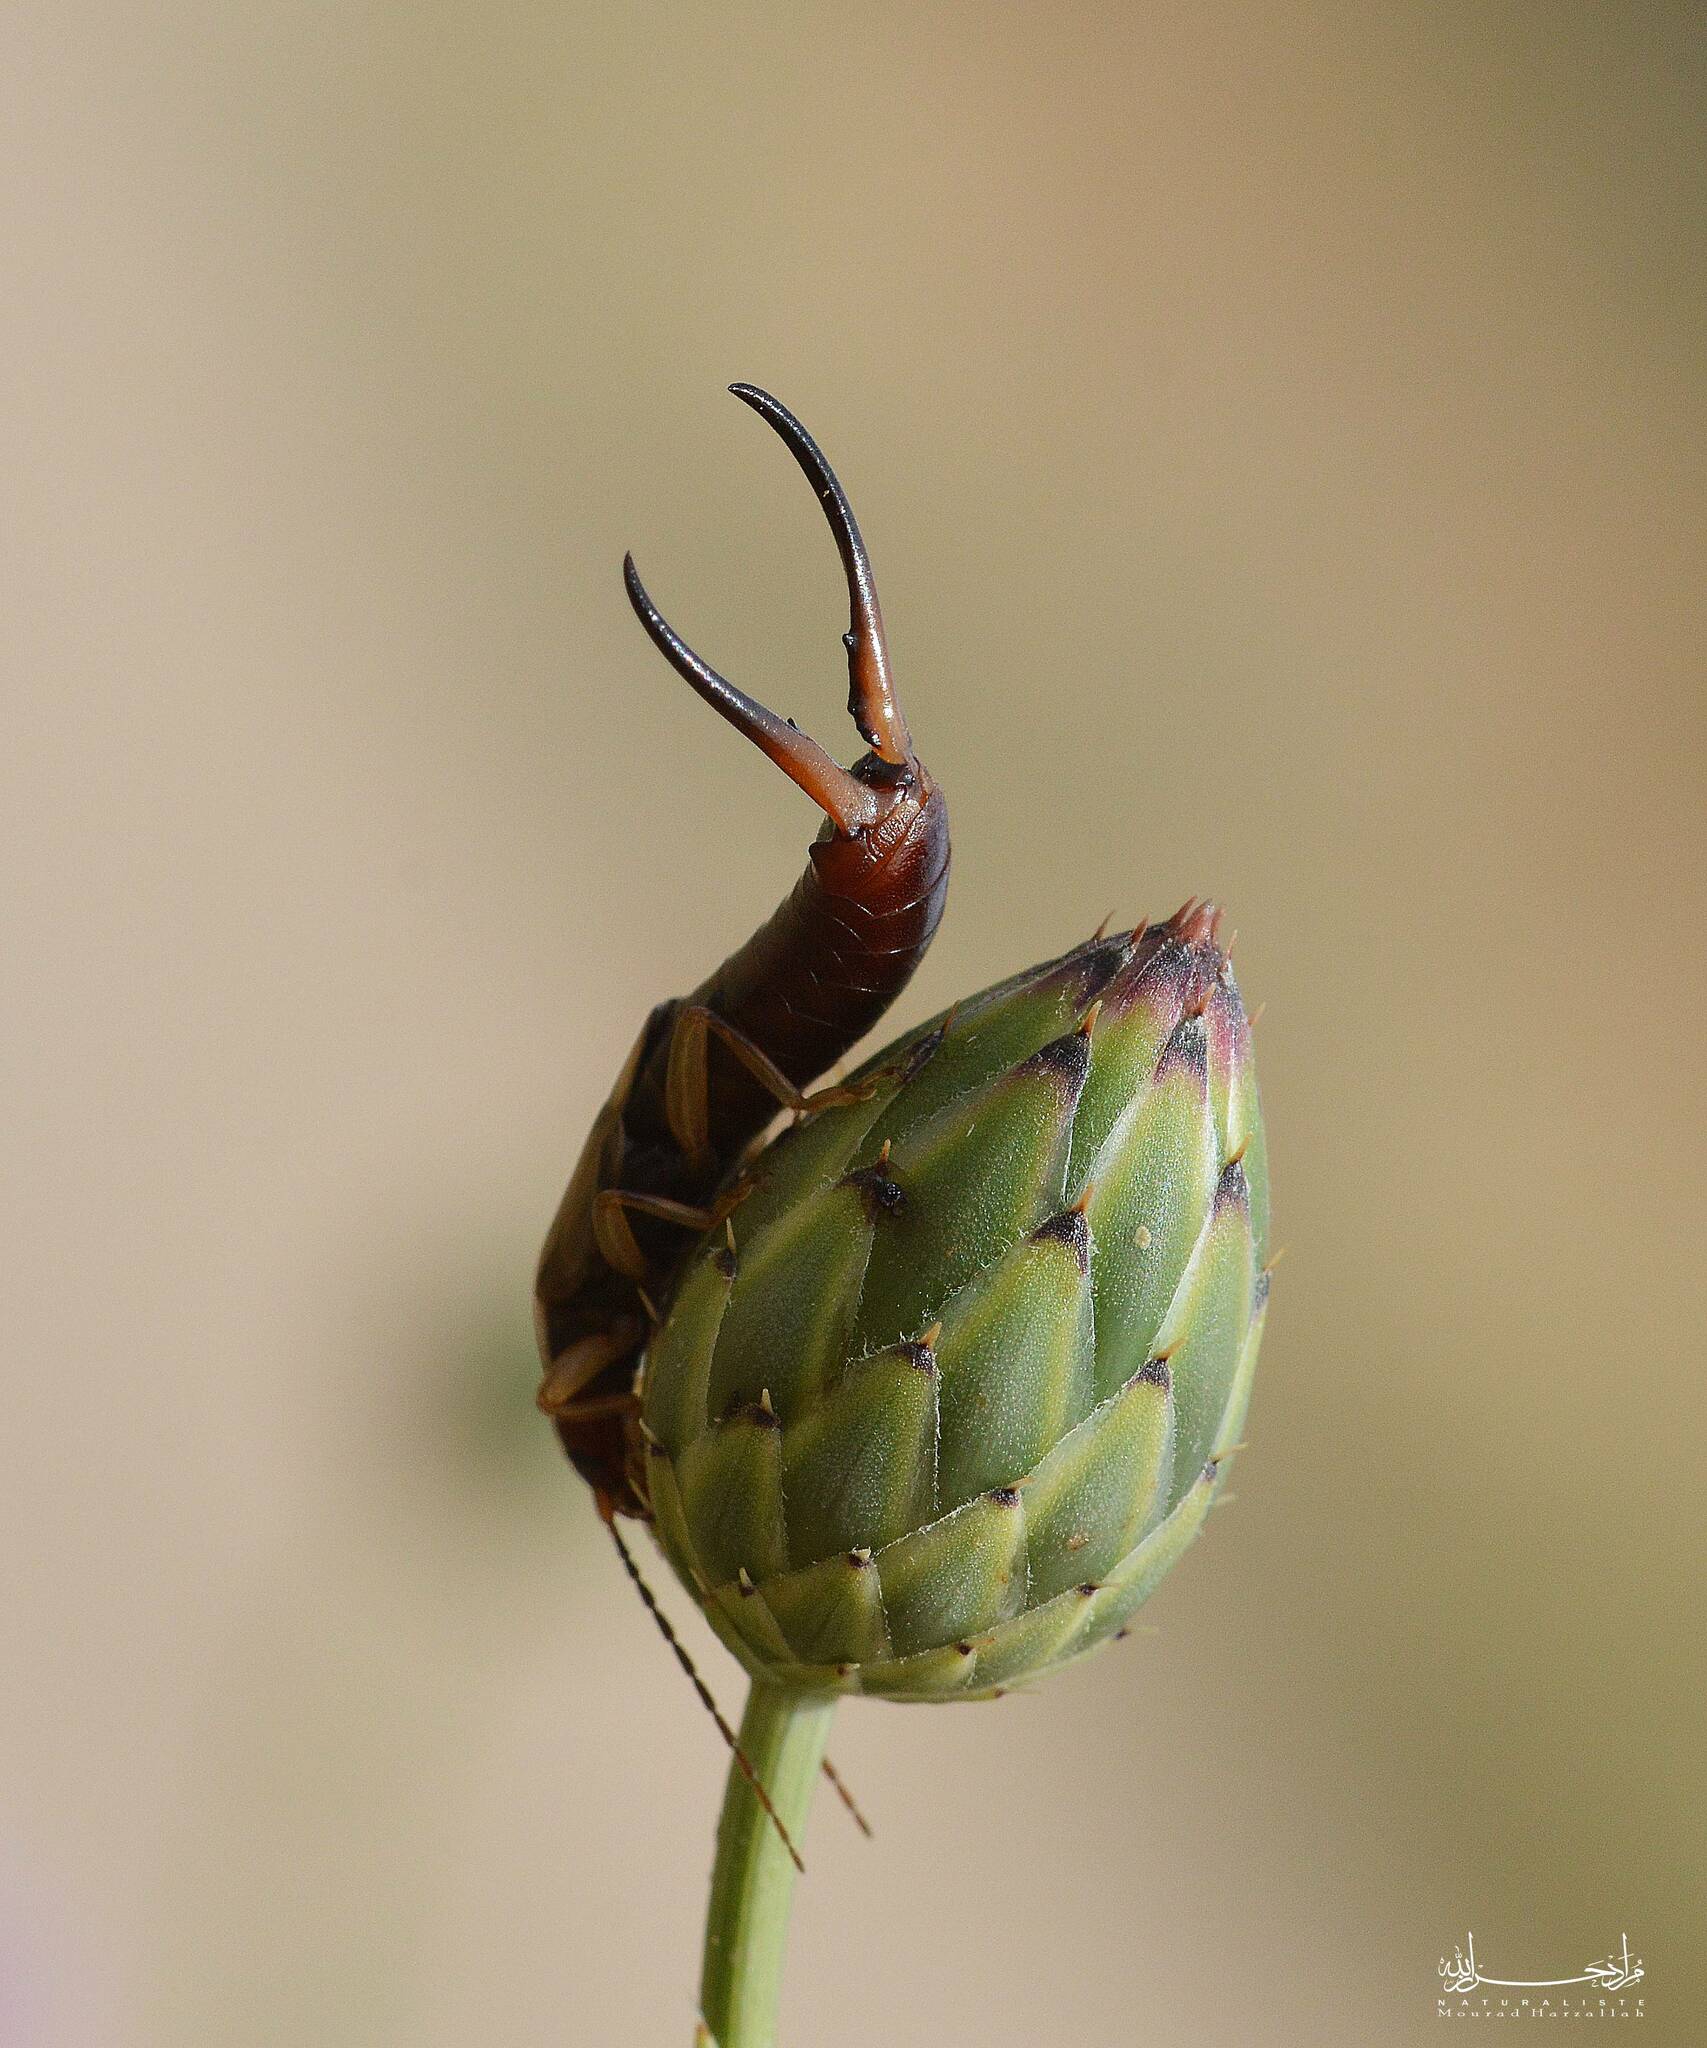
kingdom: Animalia
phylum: Arthropoda
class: Insecta
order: Dermaptera
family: Forficulidae
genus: Forficula
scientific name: Forficula
